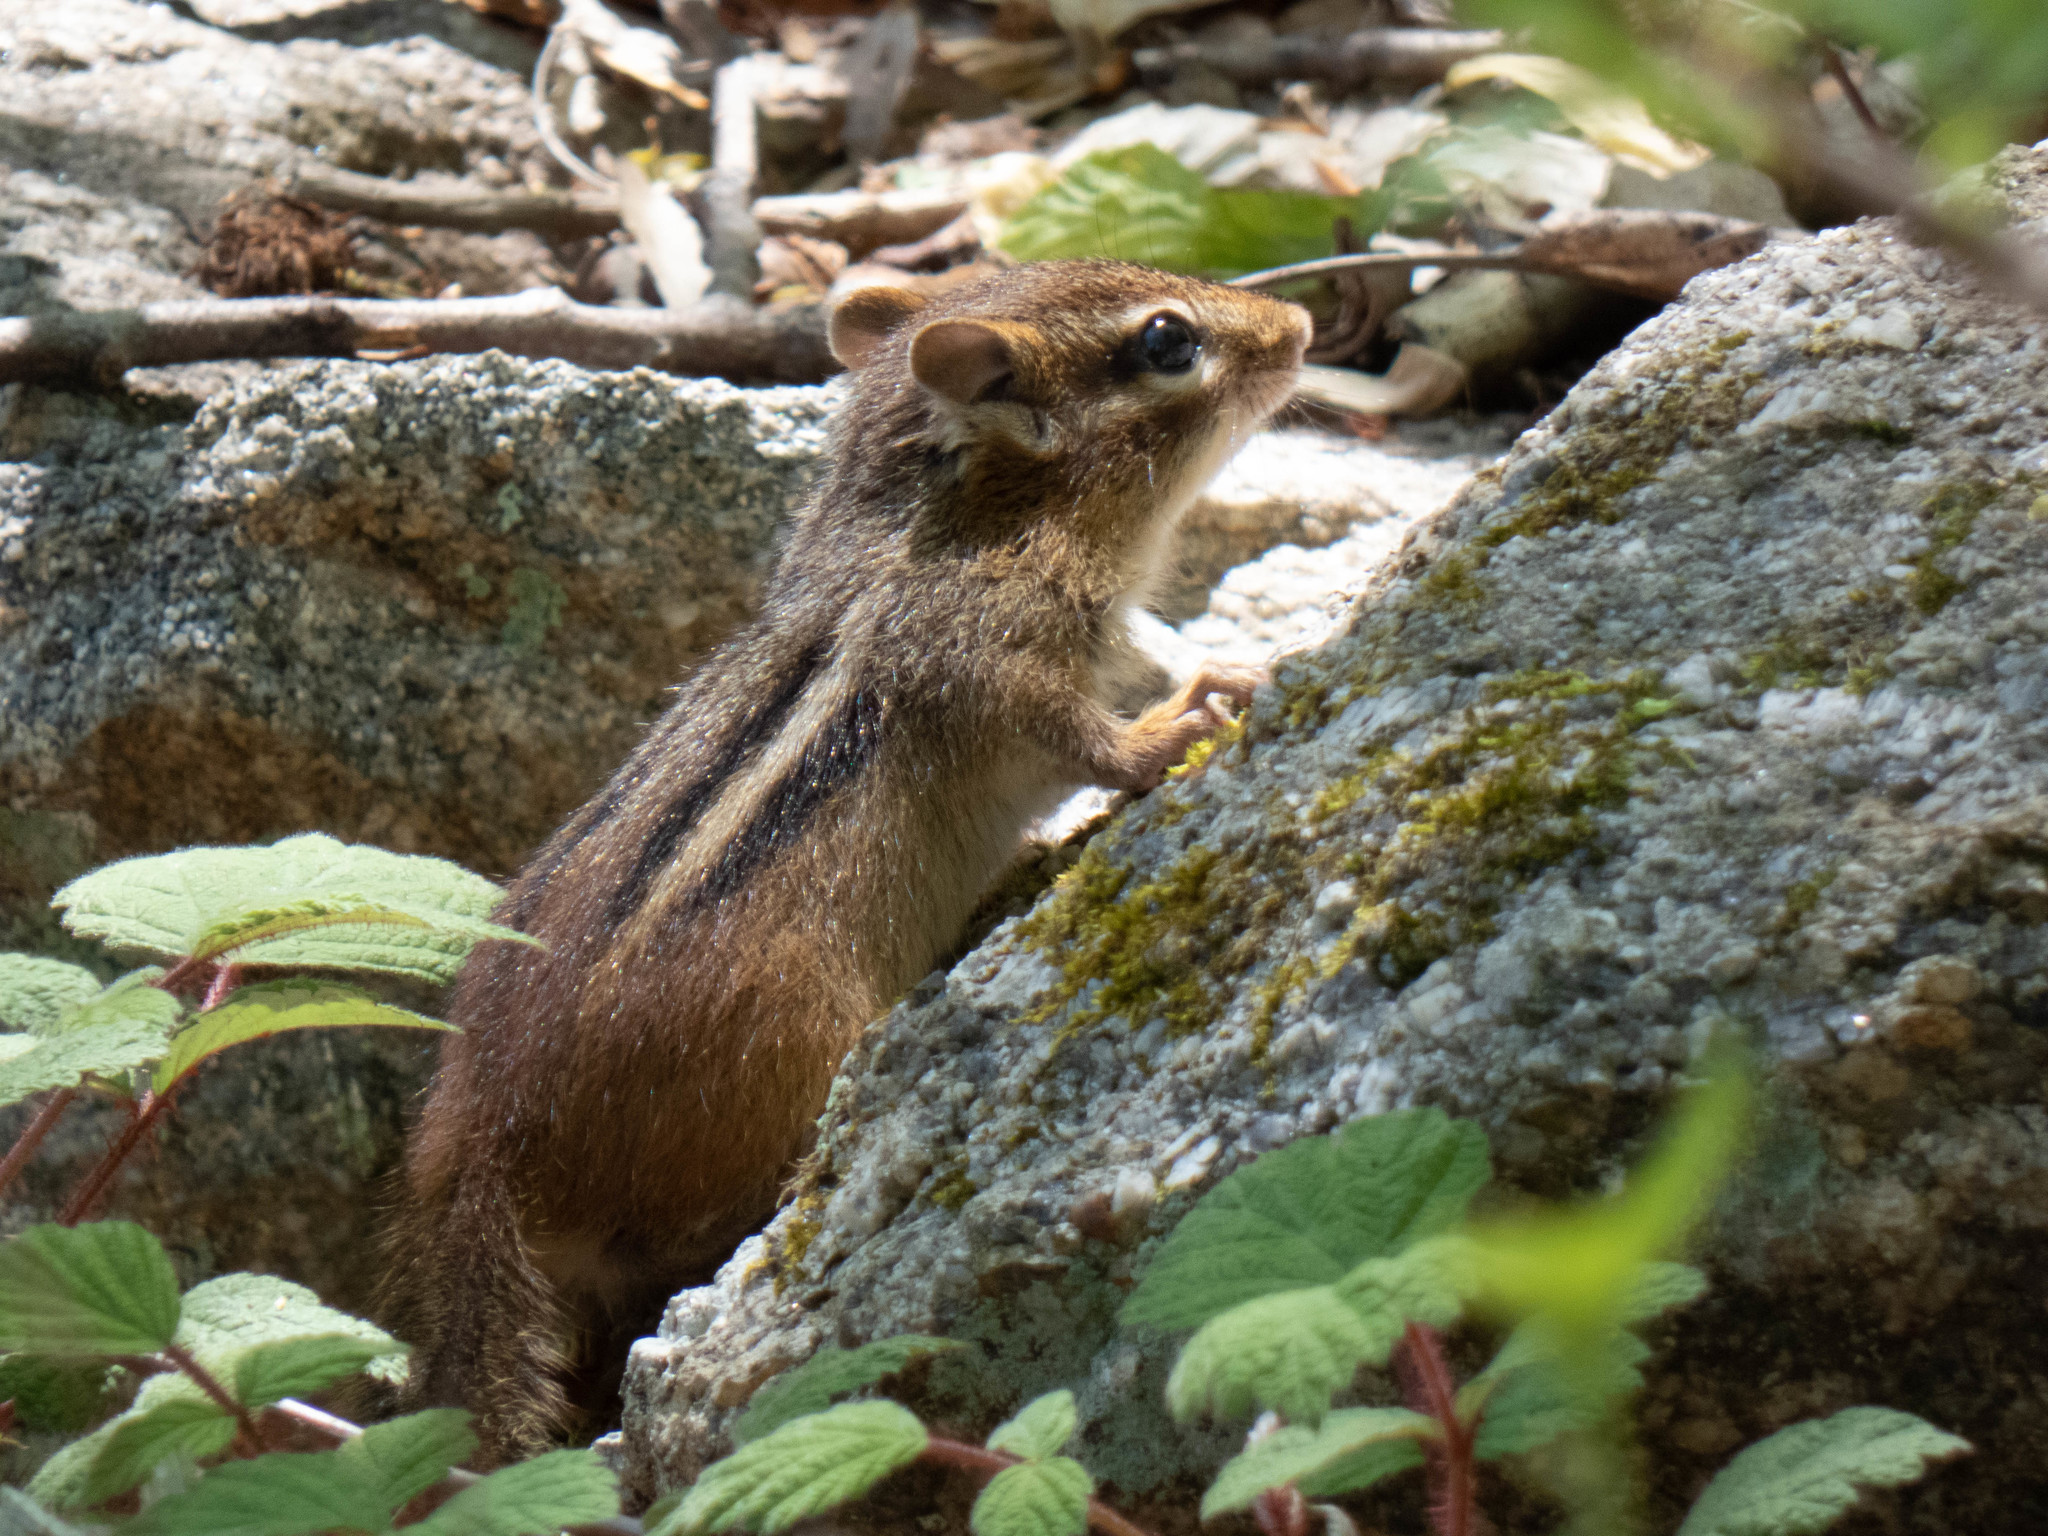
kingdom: Animalia
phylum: Chordata
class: Mammalia
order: Rodentia
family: Sciuridae
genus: Tamias
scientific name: Tamias striatus
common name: Eastern chipmunk
